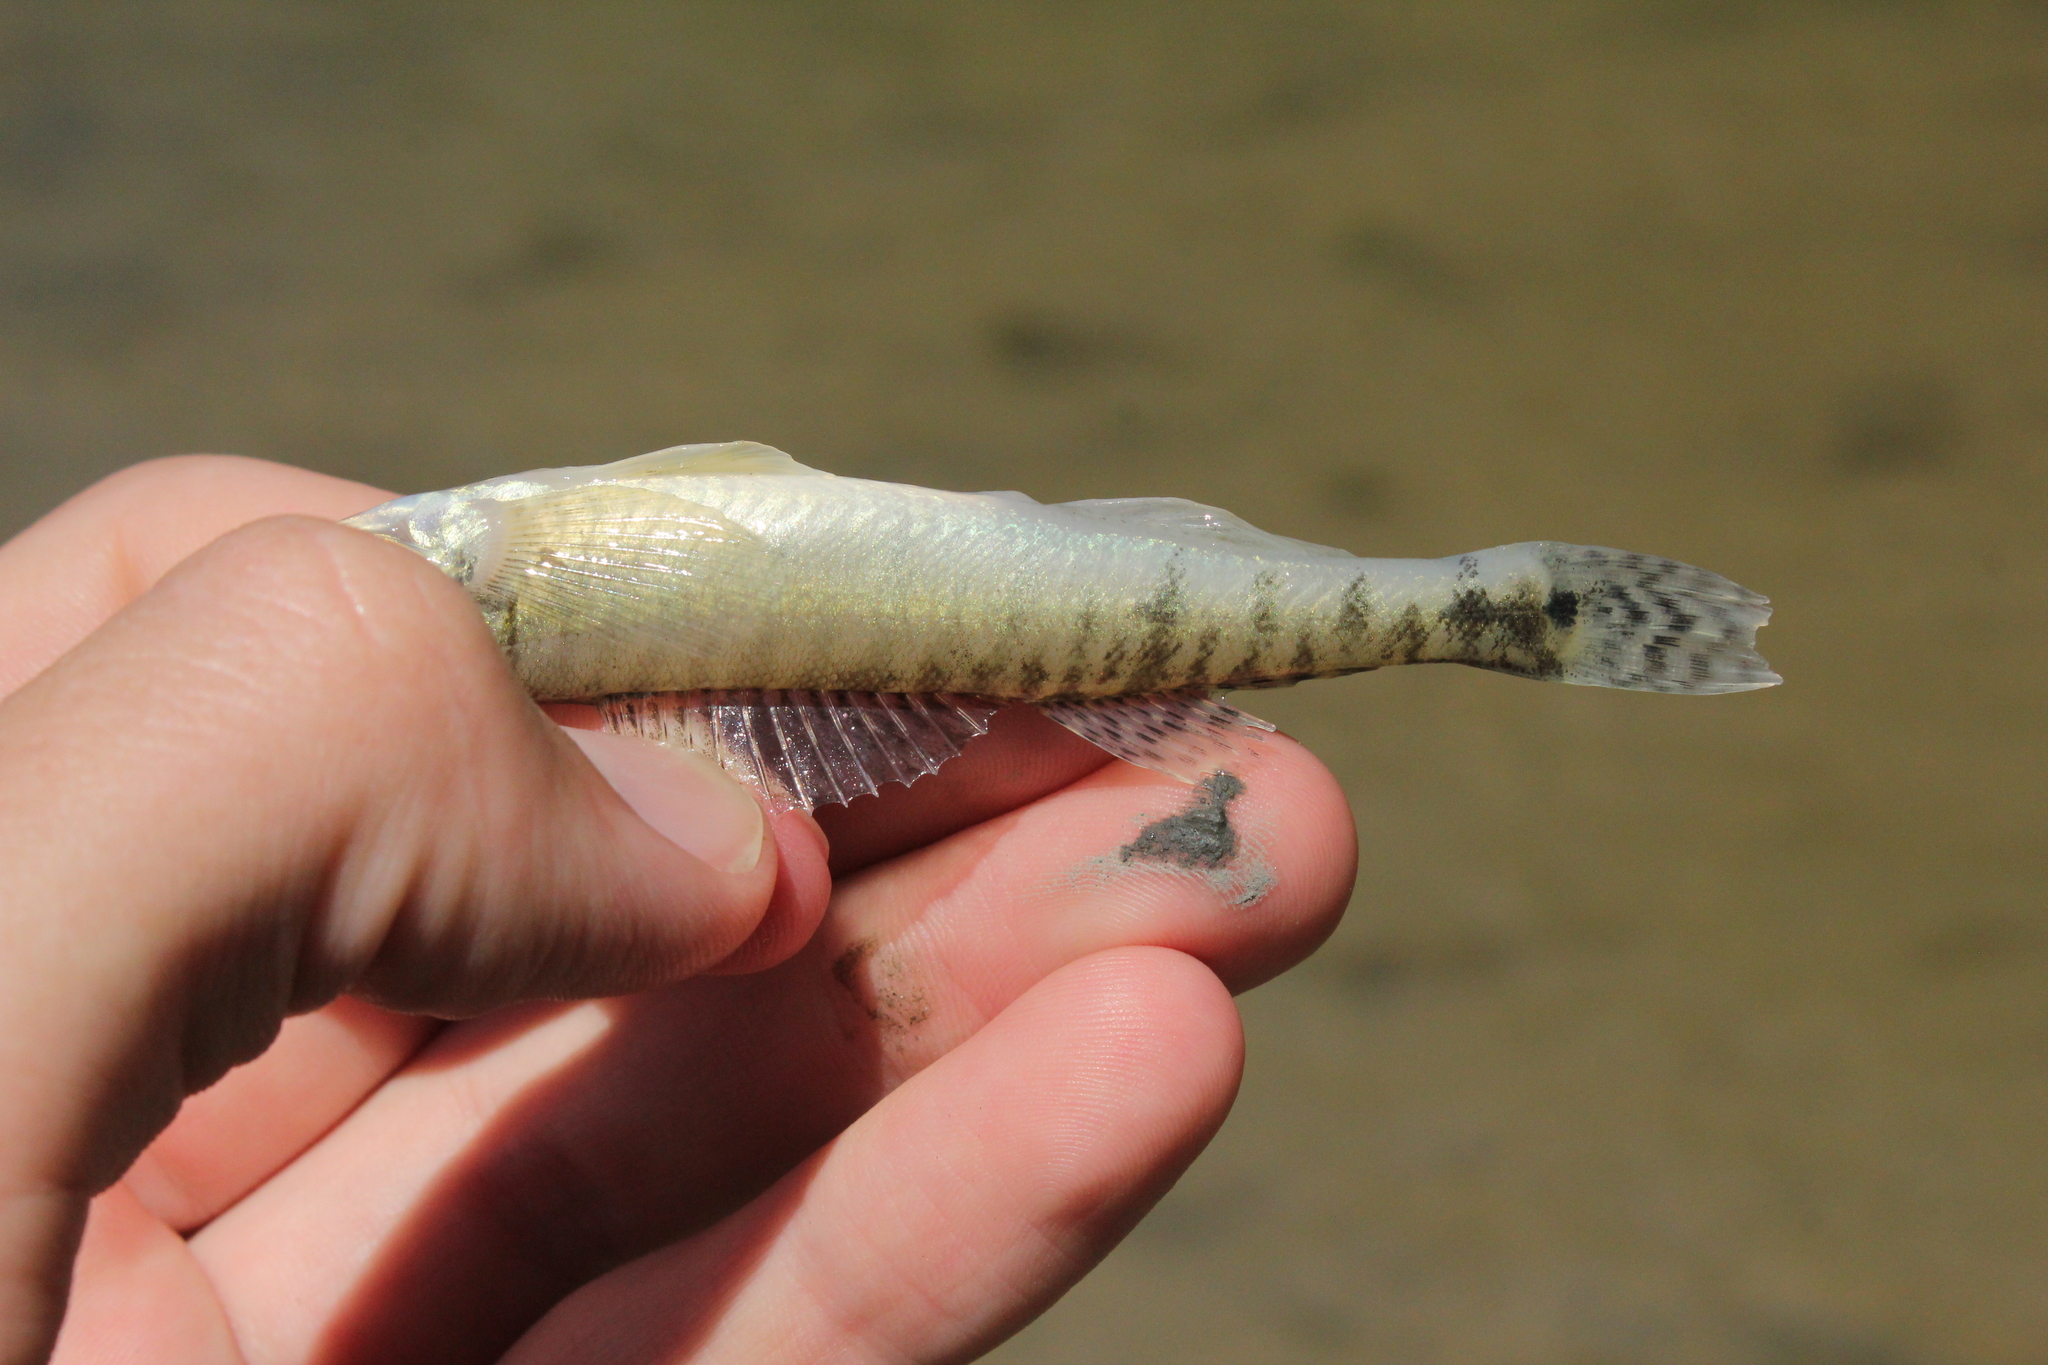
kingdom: Animalia
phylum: Chordata
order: Perciformes
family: Percidae
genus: Percina
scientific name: Percina caprodes
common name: Logperch
